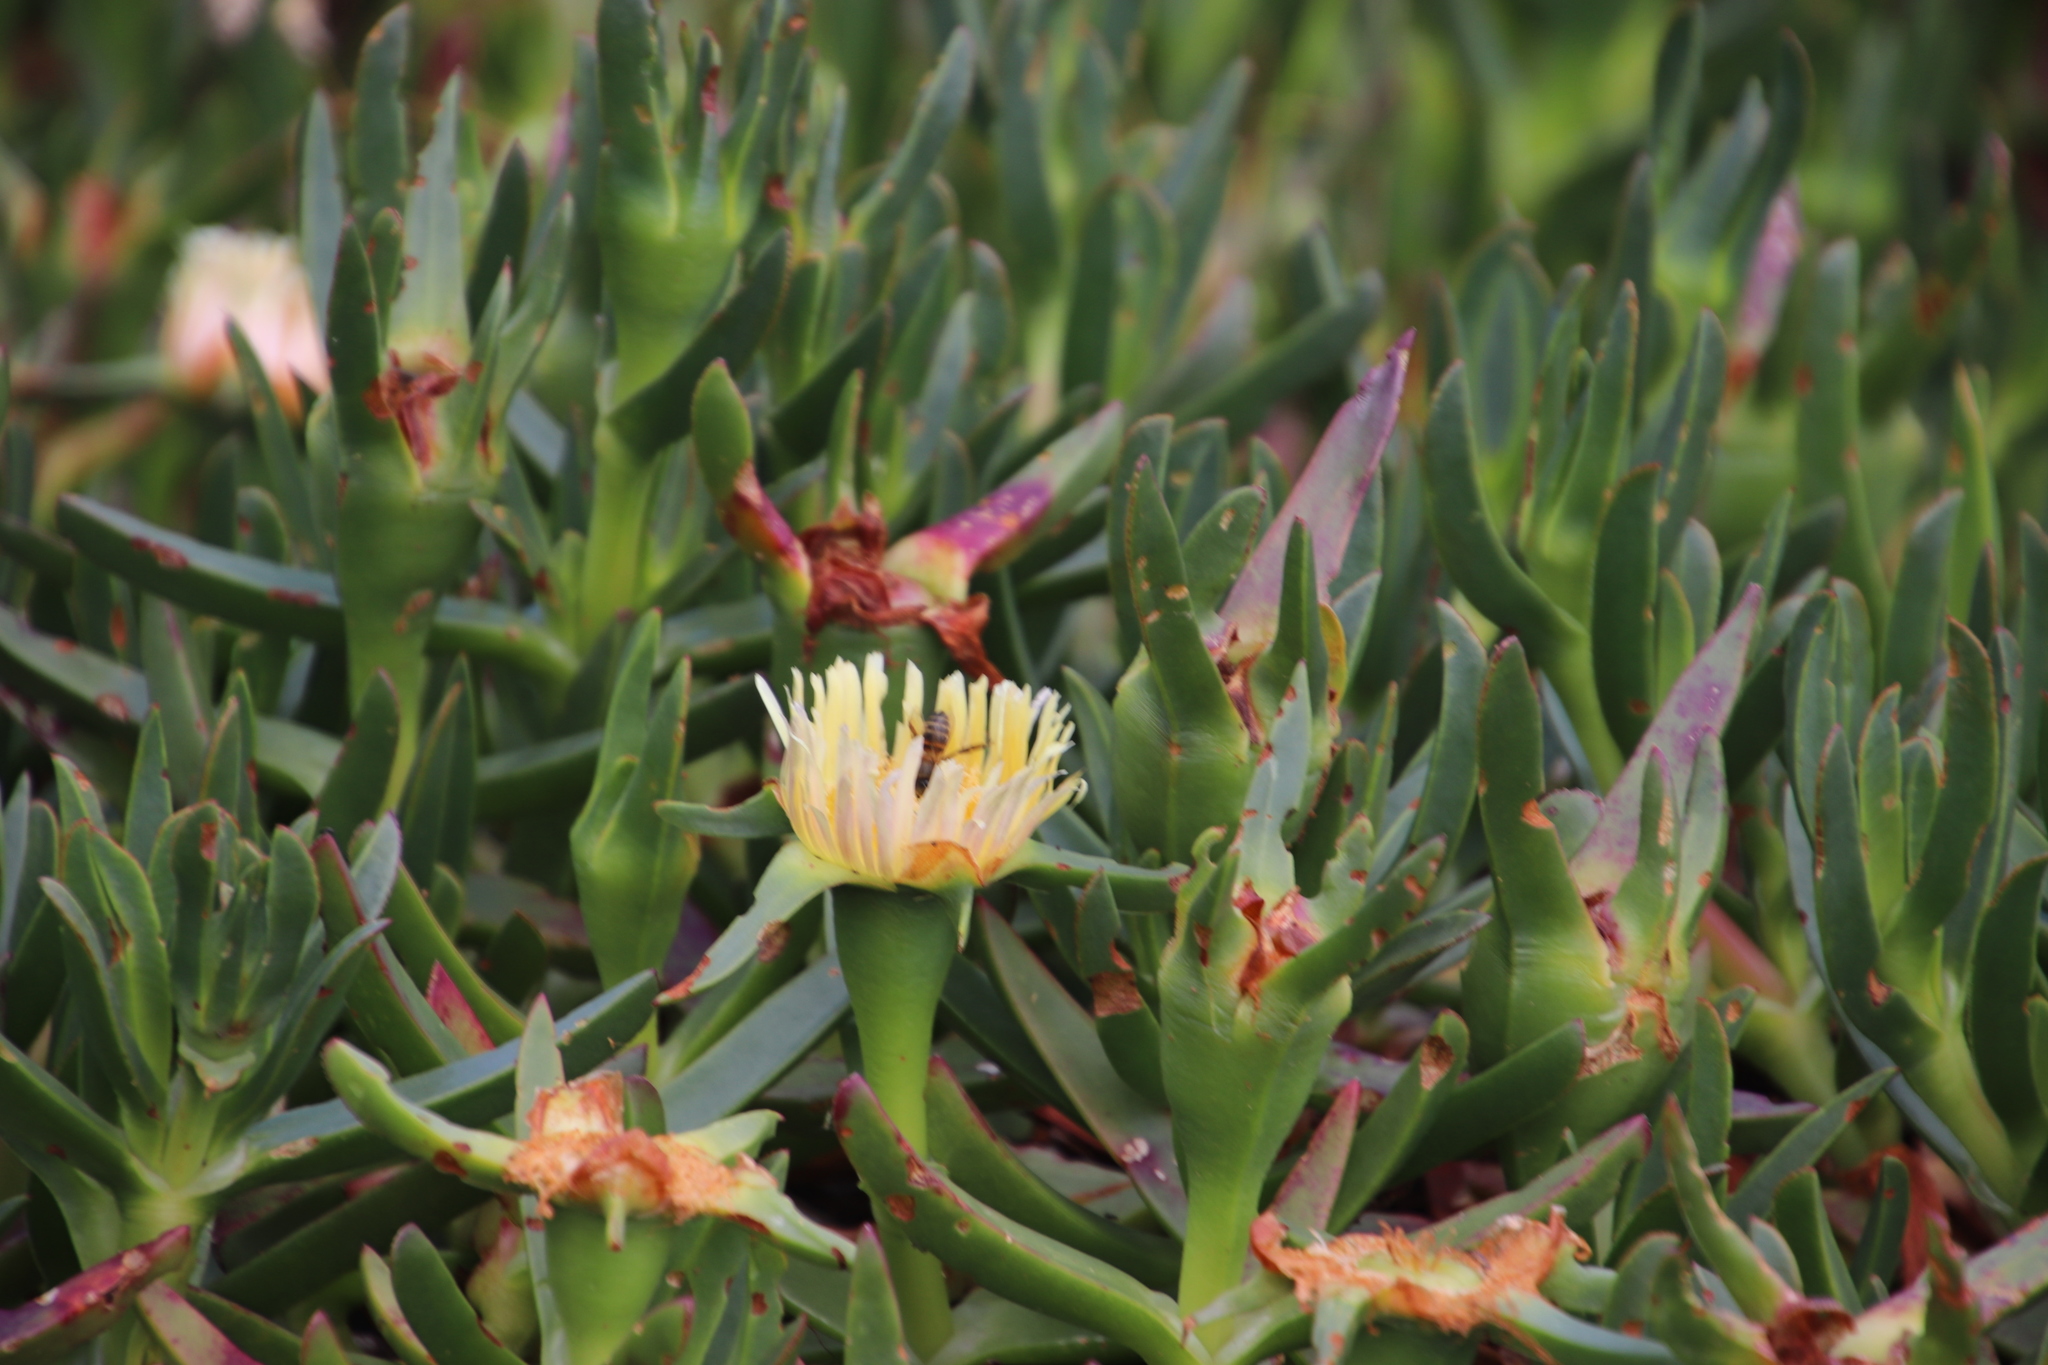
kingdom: Plantae
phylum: Tracheophyta
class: Magnoliopsida
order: Caryophyllales
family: Aizoaceae
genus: Carpobrotus
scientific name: Carpobrotus edulis
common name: Hottentot-fig
